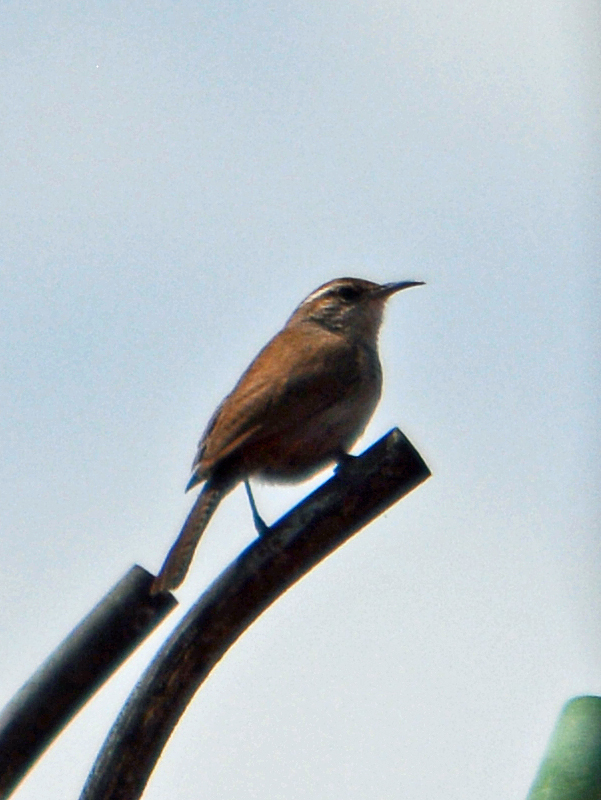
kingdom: Animalia
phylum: Chordata
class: Aves
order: Passeriformes
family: Troglodytidae
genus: Thryomanes
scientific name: Thryomanes bewickii
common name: Bewick's wren
